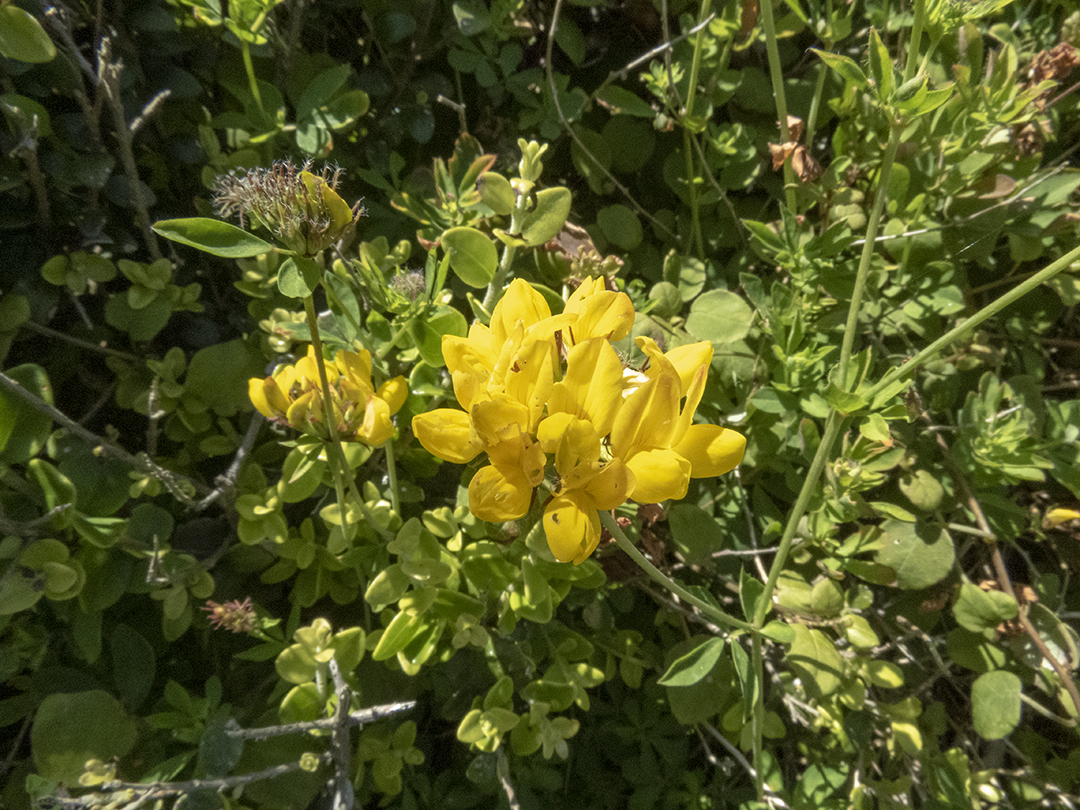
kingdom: Plantae
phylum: Tracheophyta
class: Magnoliopsida
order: Fabales
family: Fabaceae
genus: Lotus
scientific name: Lotus pedunculatus
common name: Greater birdsfoot-trefoil
